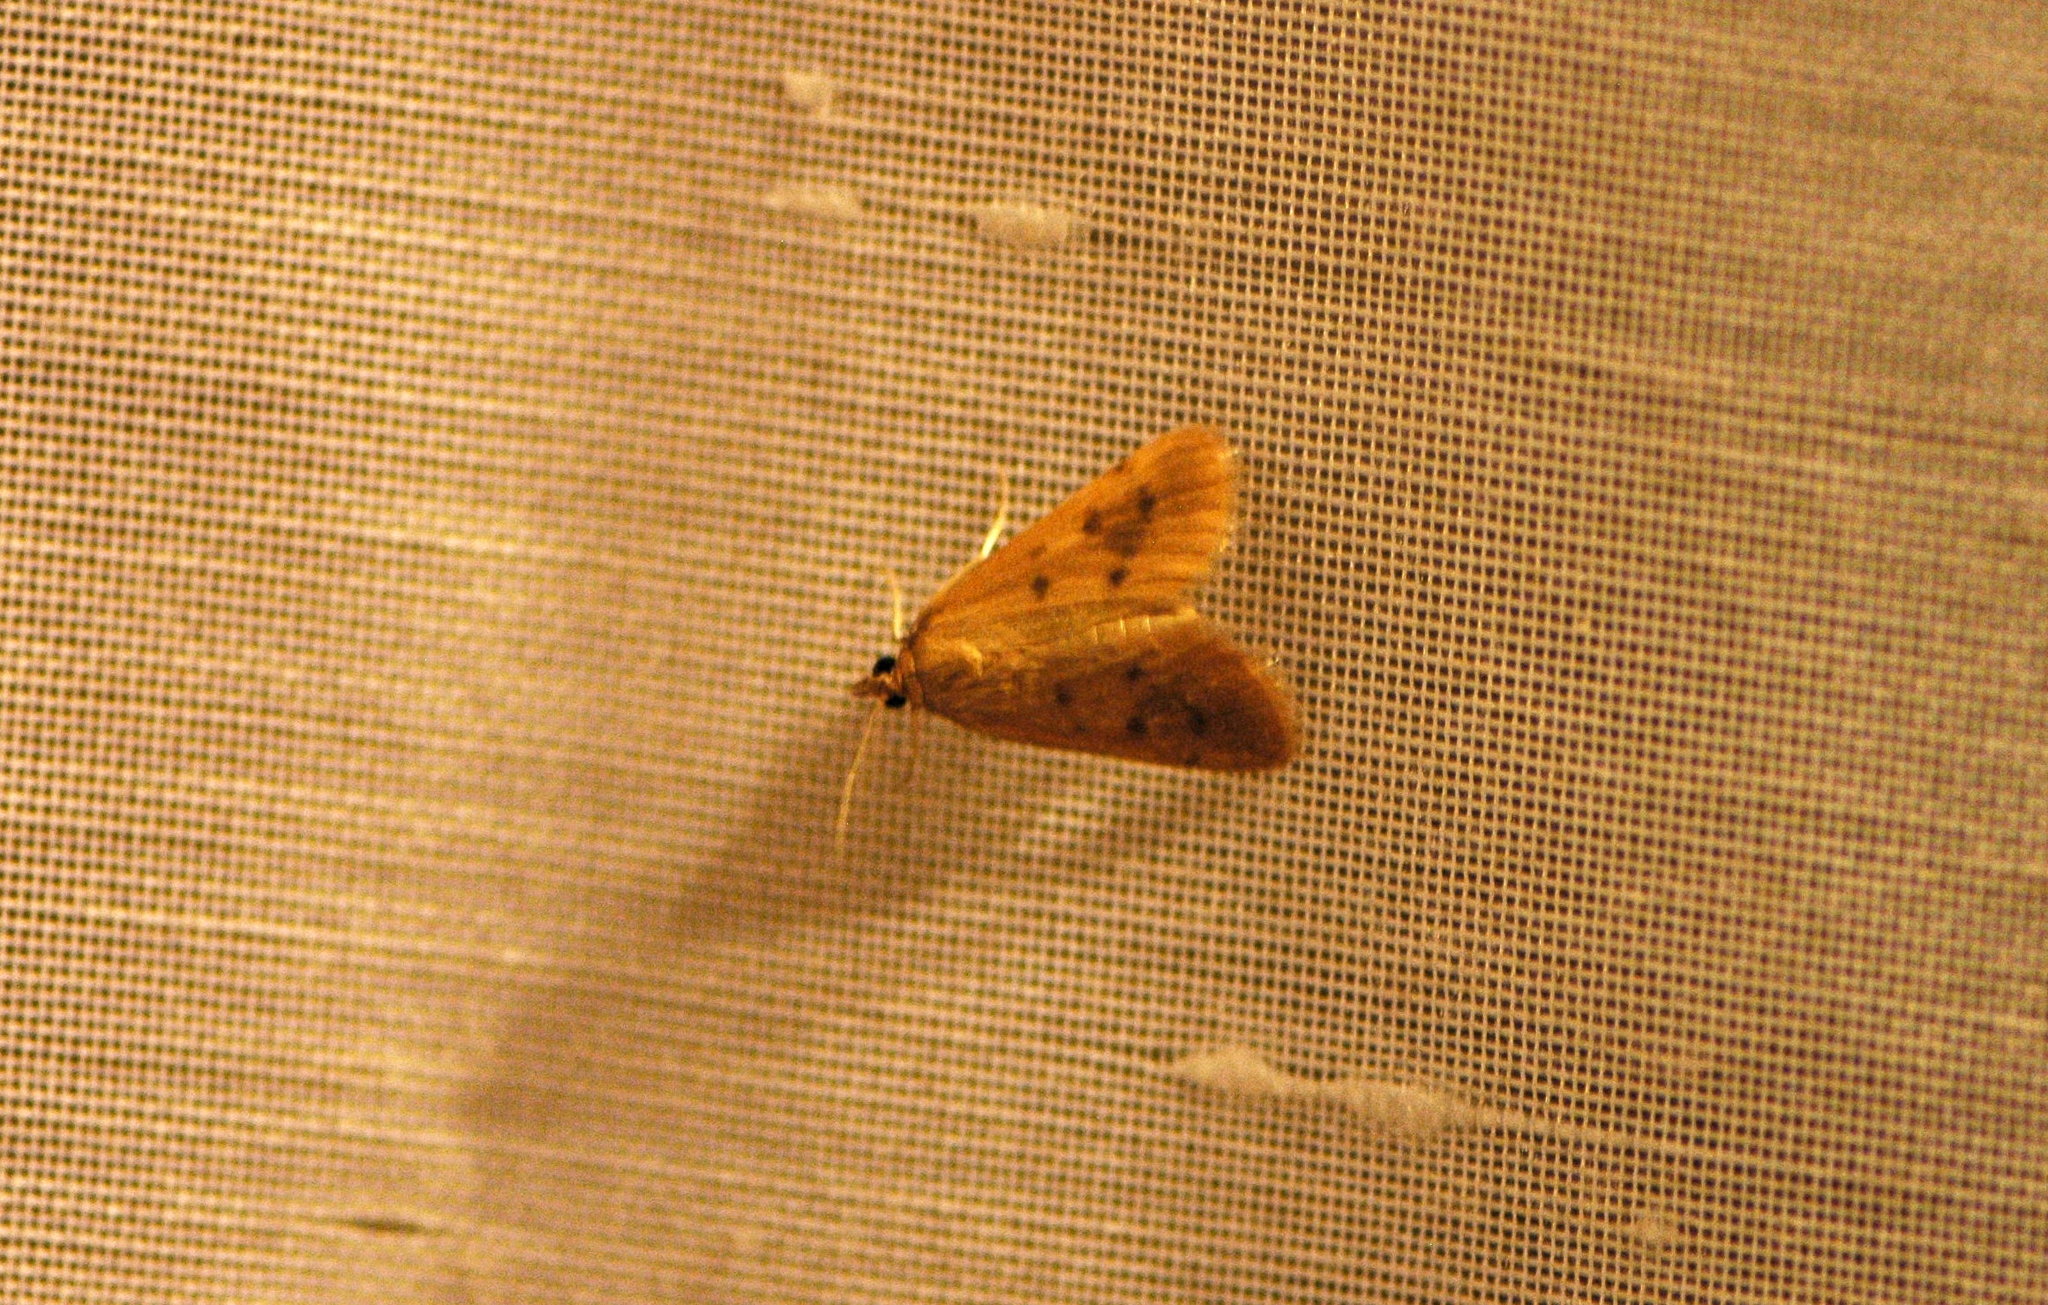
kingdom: Animalia
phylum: Arthropoda
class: Insecta
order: Lepidoptera
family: Crambidae
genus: Achyra
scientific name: Achyra nudalis
